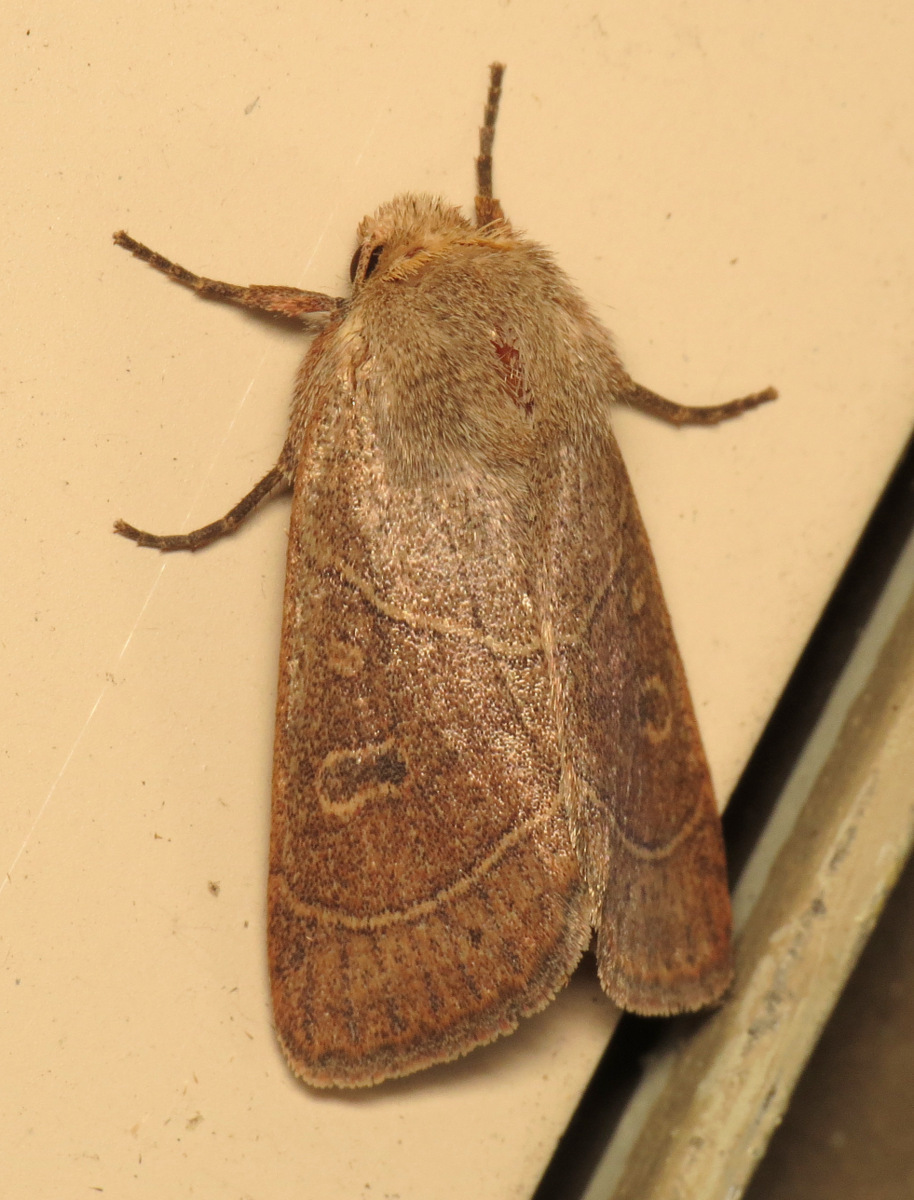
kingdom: Animalia
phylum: Arthropoda
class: Insecta
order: Lepidoptera
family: Noctuidae
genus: Ulolonche
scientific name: Ulolonche culea
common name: Sheathed quaker
